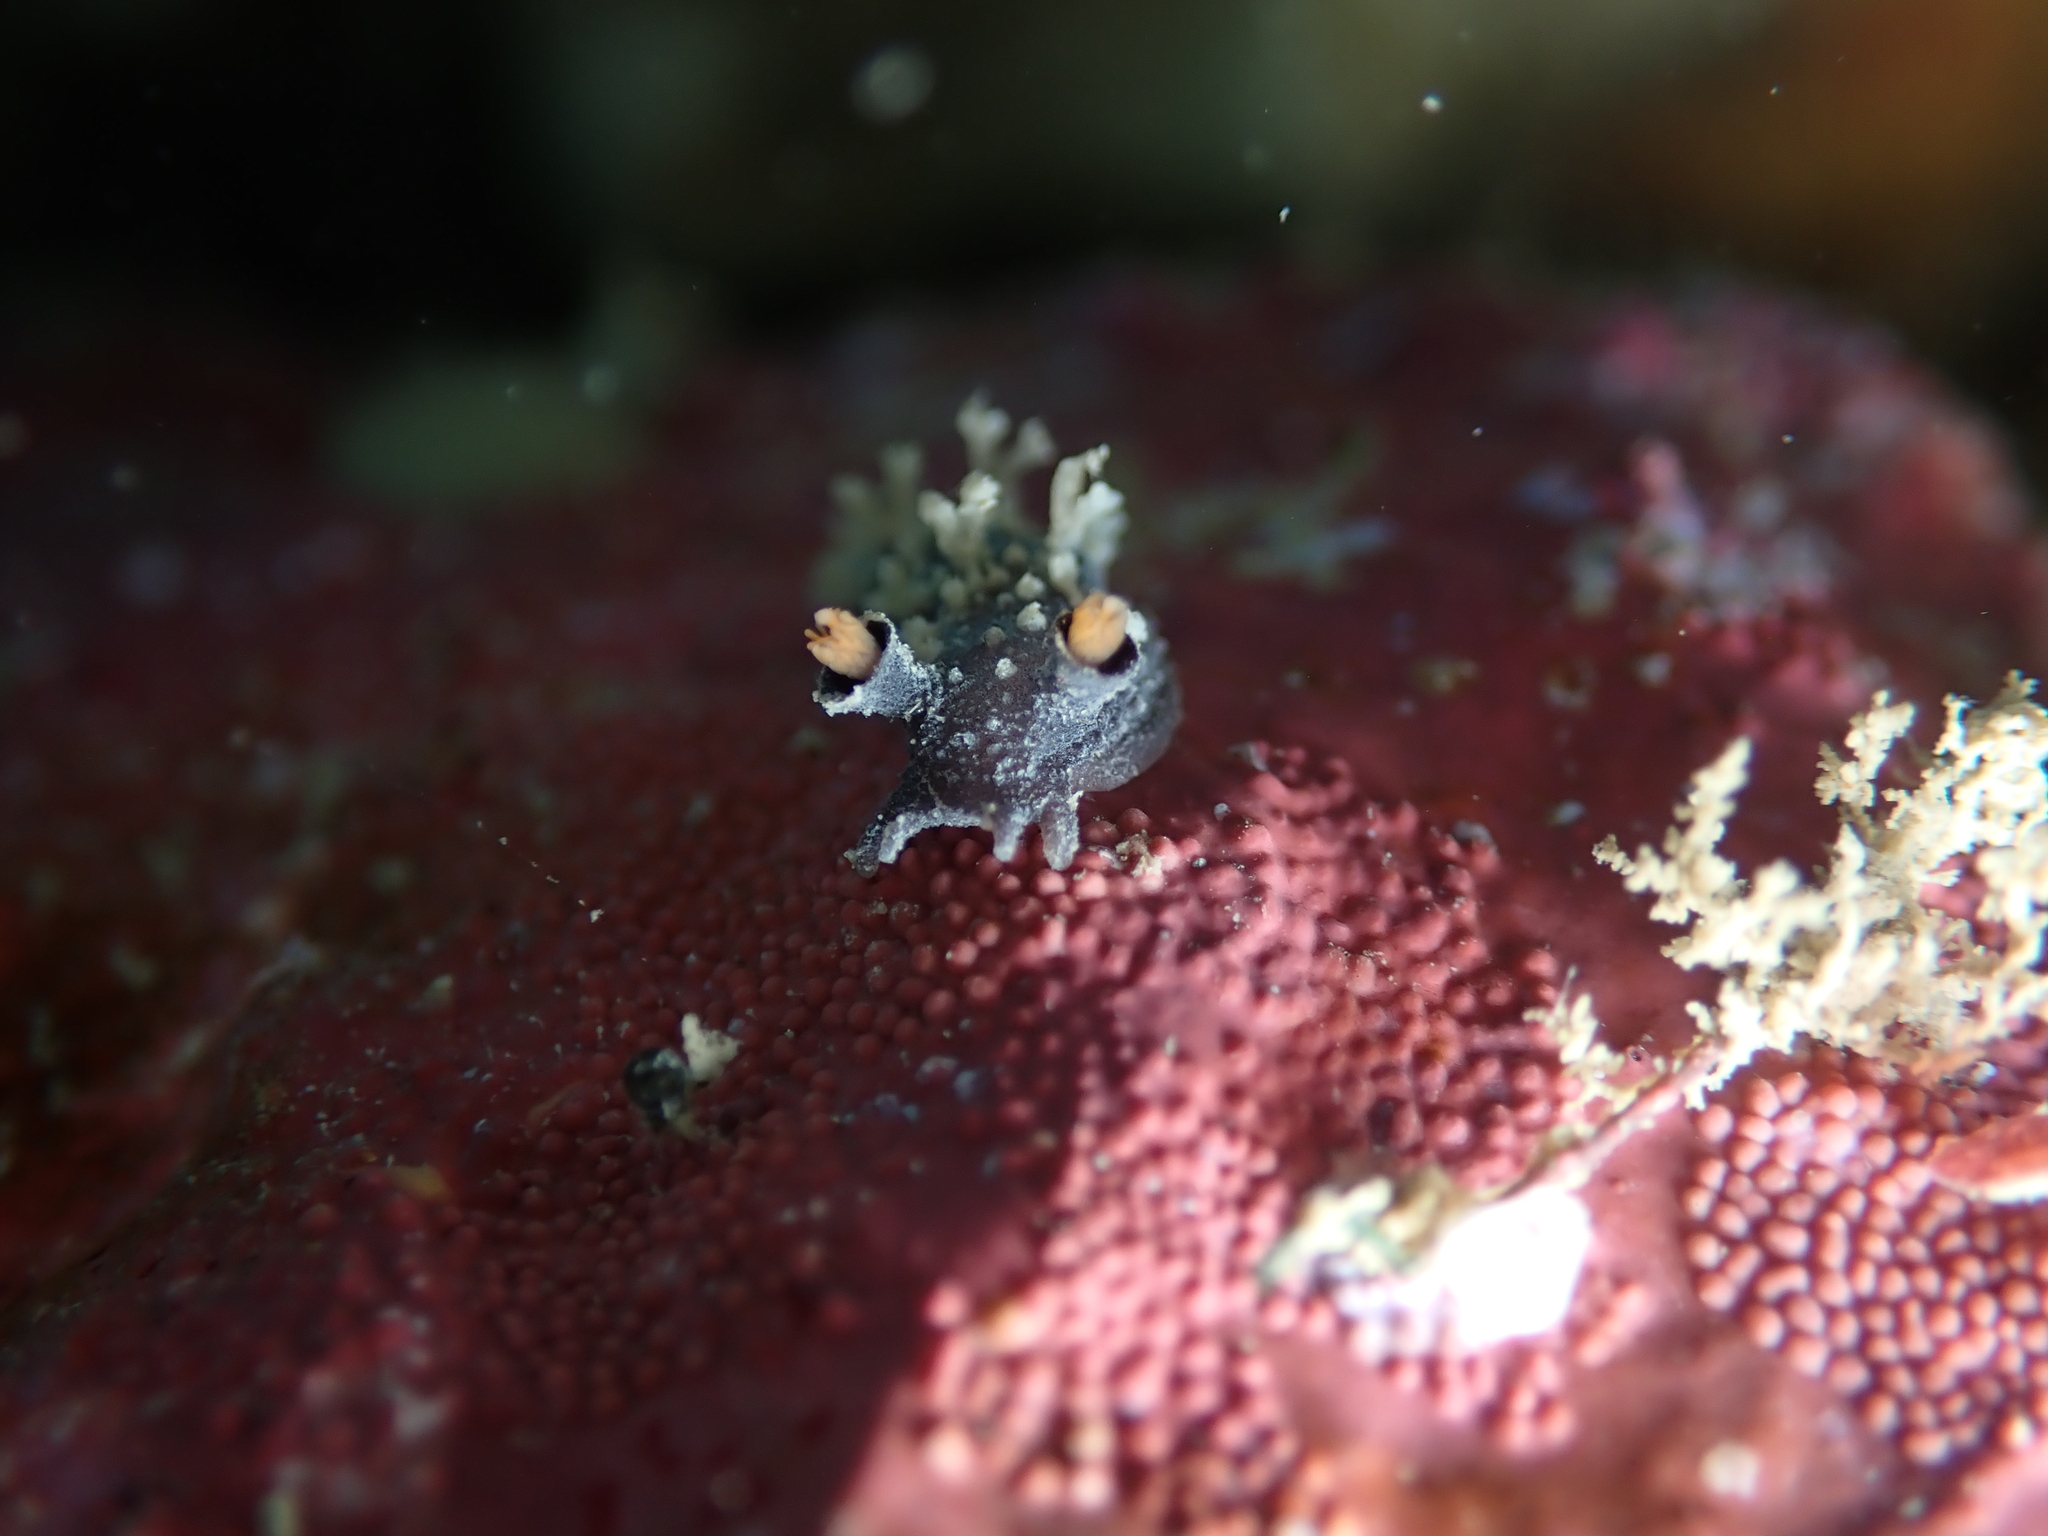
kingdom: Animalia
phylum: Mollusca
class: Gastropoda
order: Nudibranchia
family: Tritoniidae
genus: Tritonia
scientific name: Tritonia flemingi
